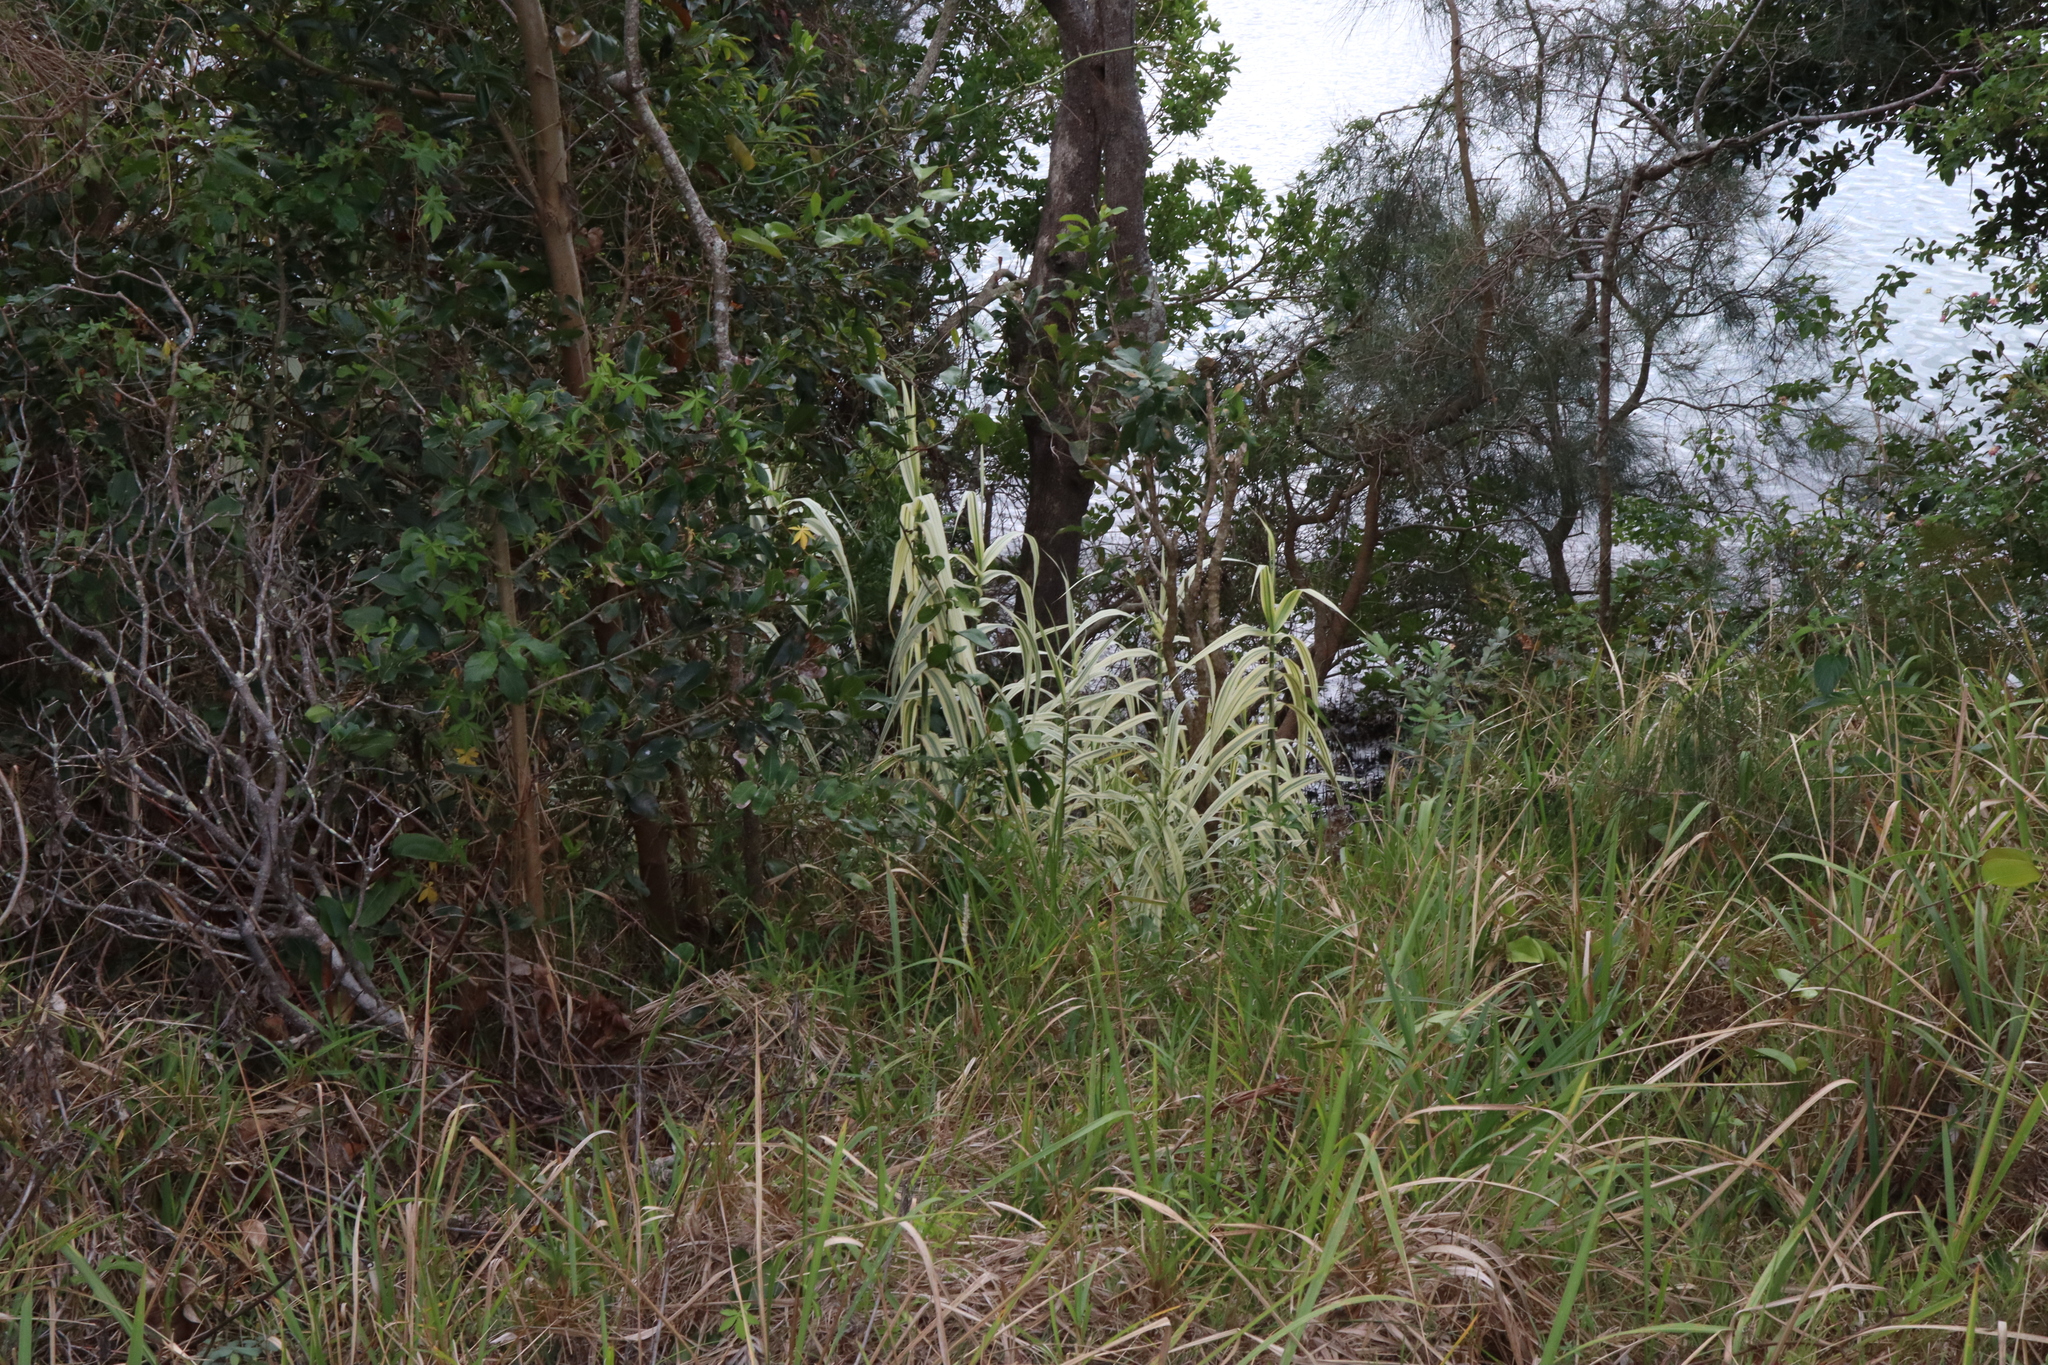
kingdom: Plantae
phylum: Tracheophyta
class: Liliopsida
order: Poales
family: Poaceae
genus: Arundo
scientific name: Arundo donax
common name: Giant reed
